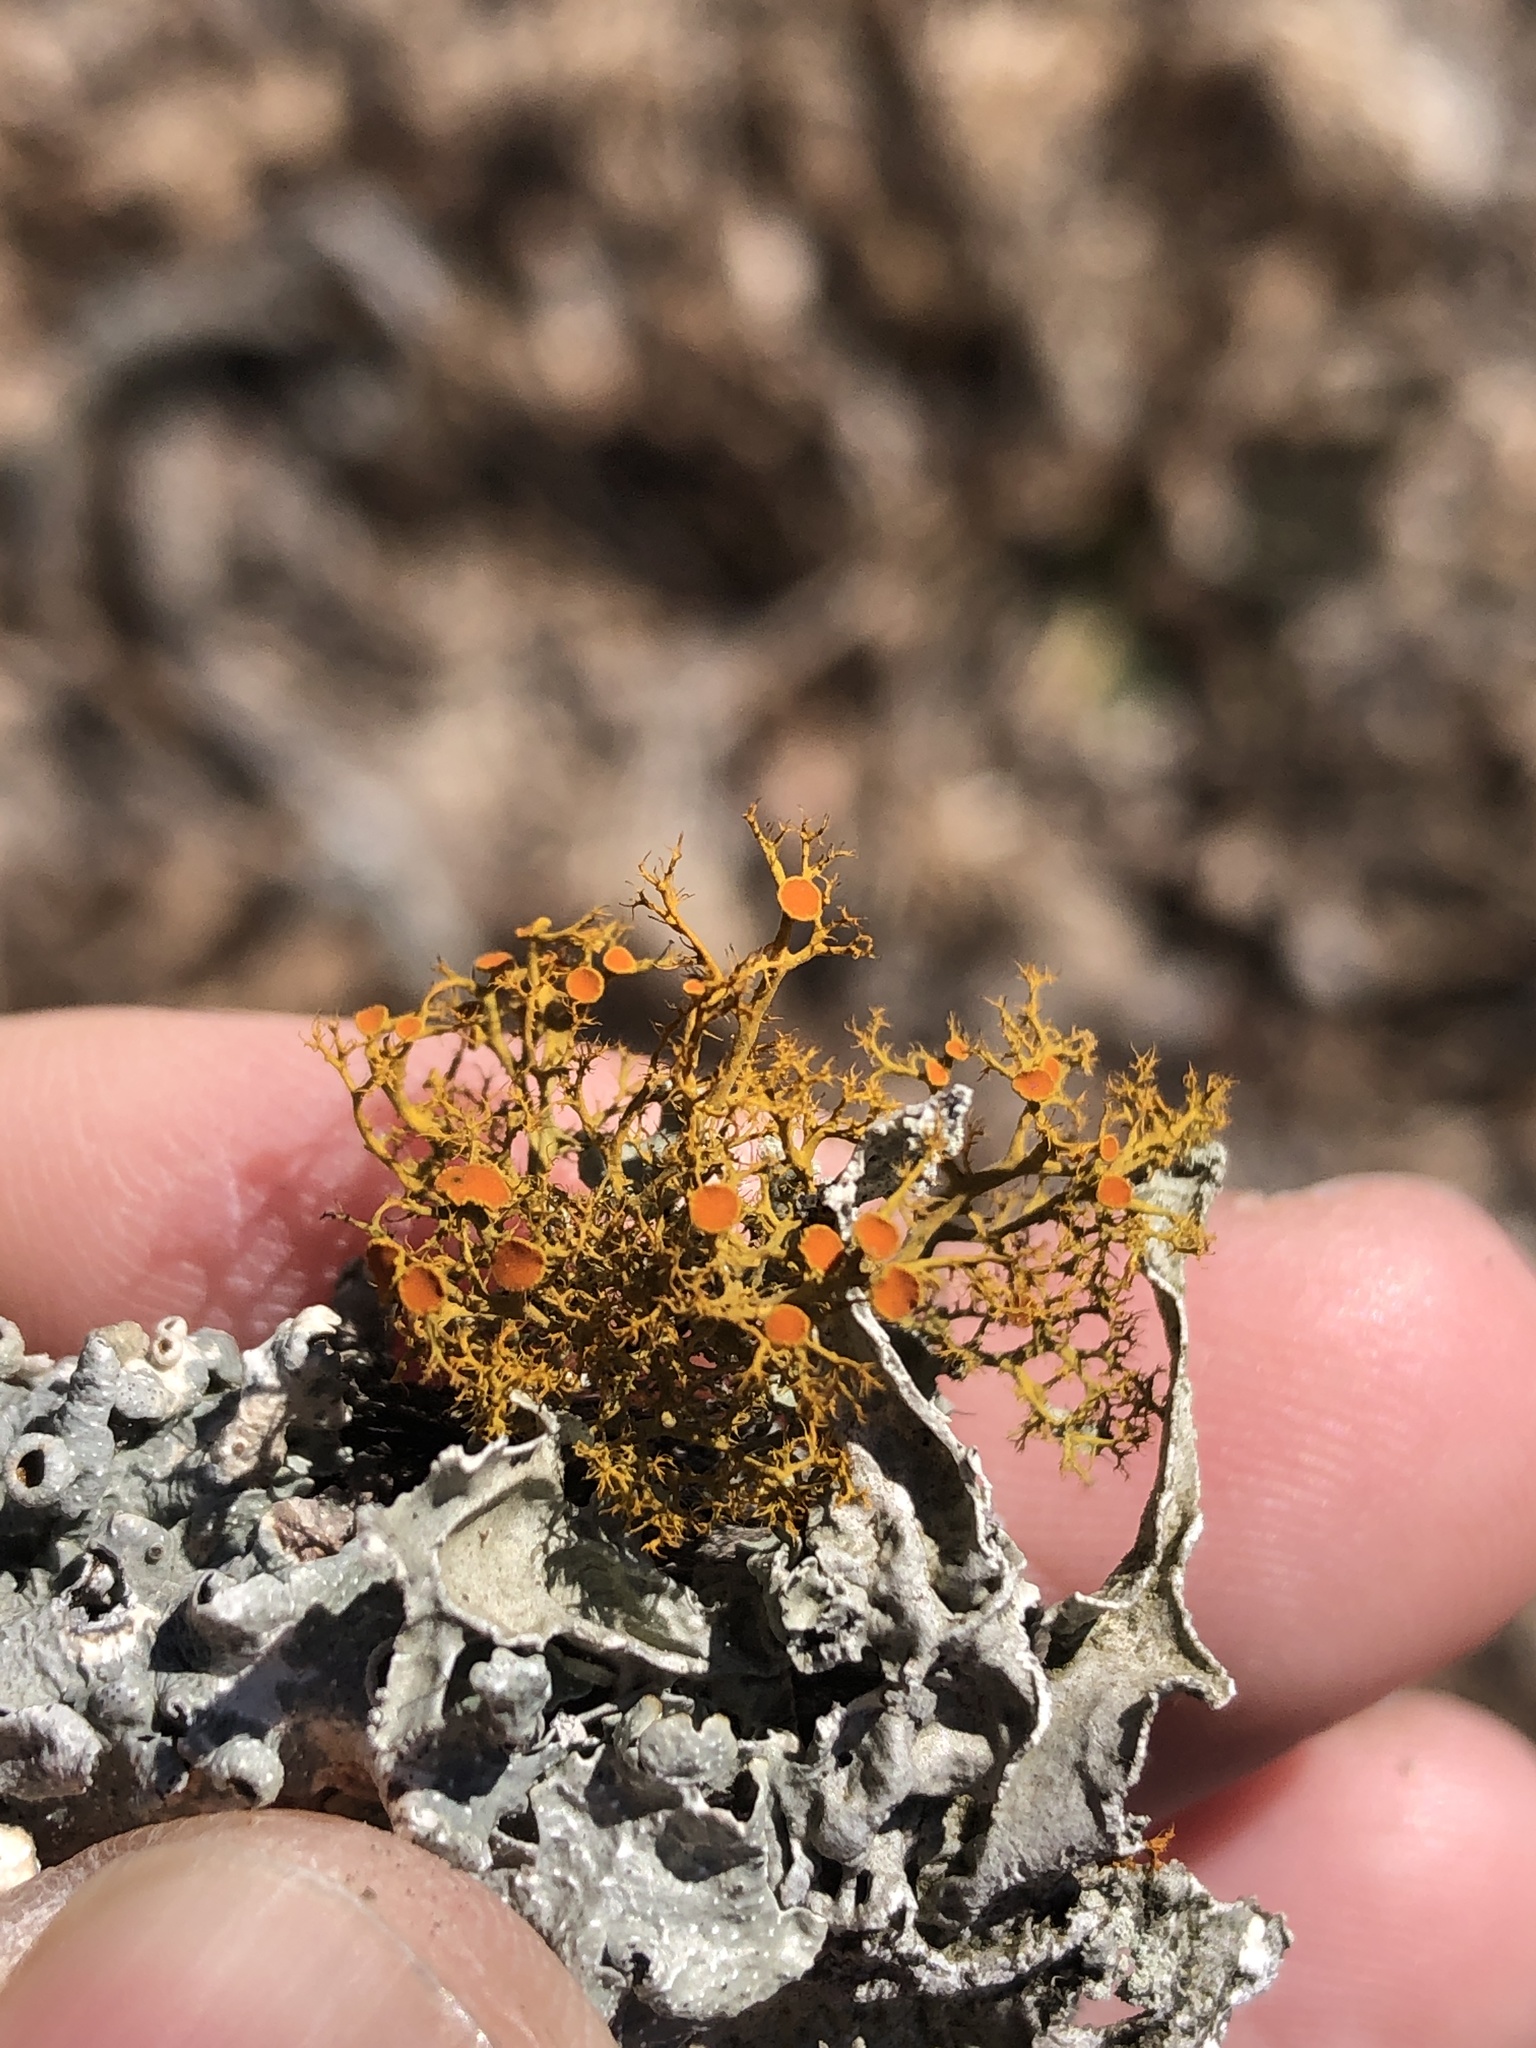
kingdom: Fungi
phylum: Ascomycota
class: Lecanoromycetes
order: Teloschistales
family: Teloschistaceae
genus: Teloschistes
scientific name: Teloschistes exilis
